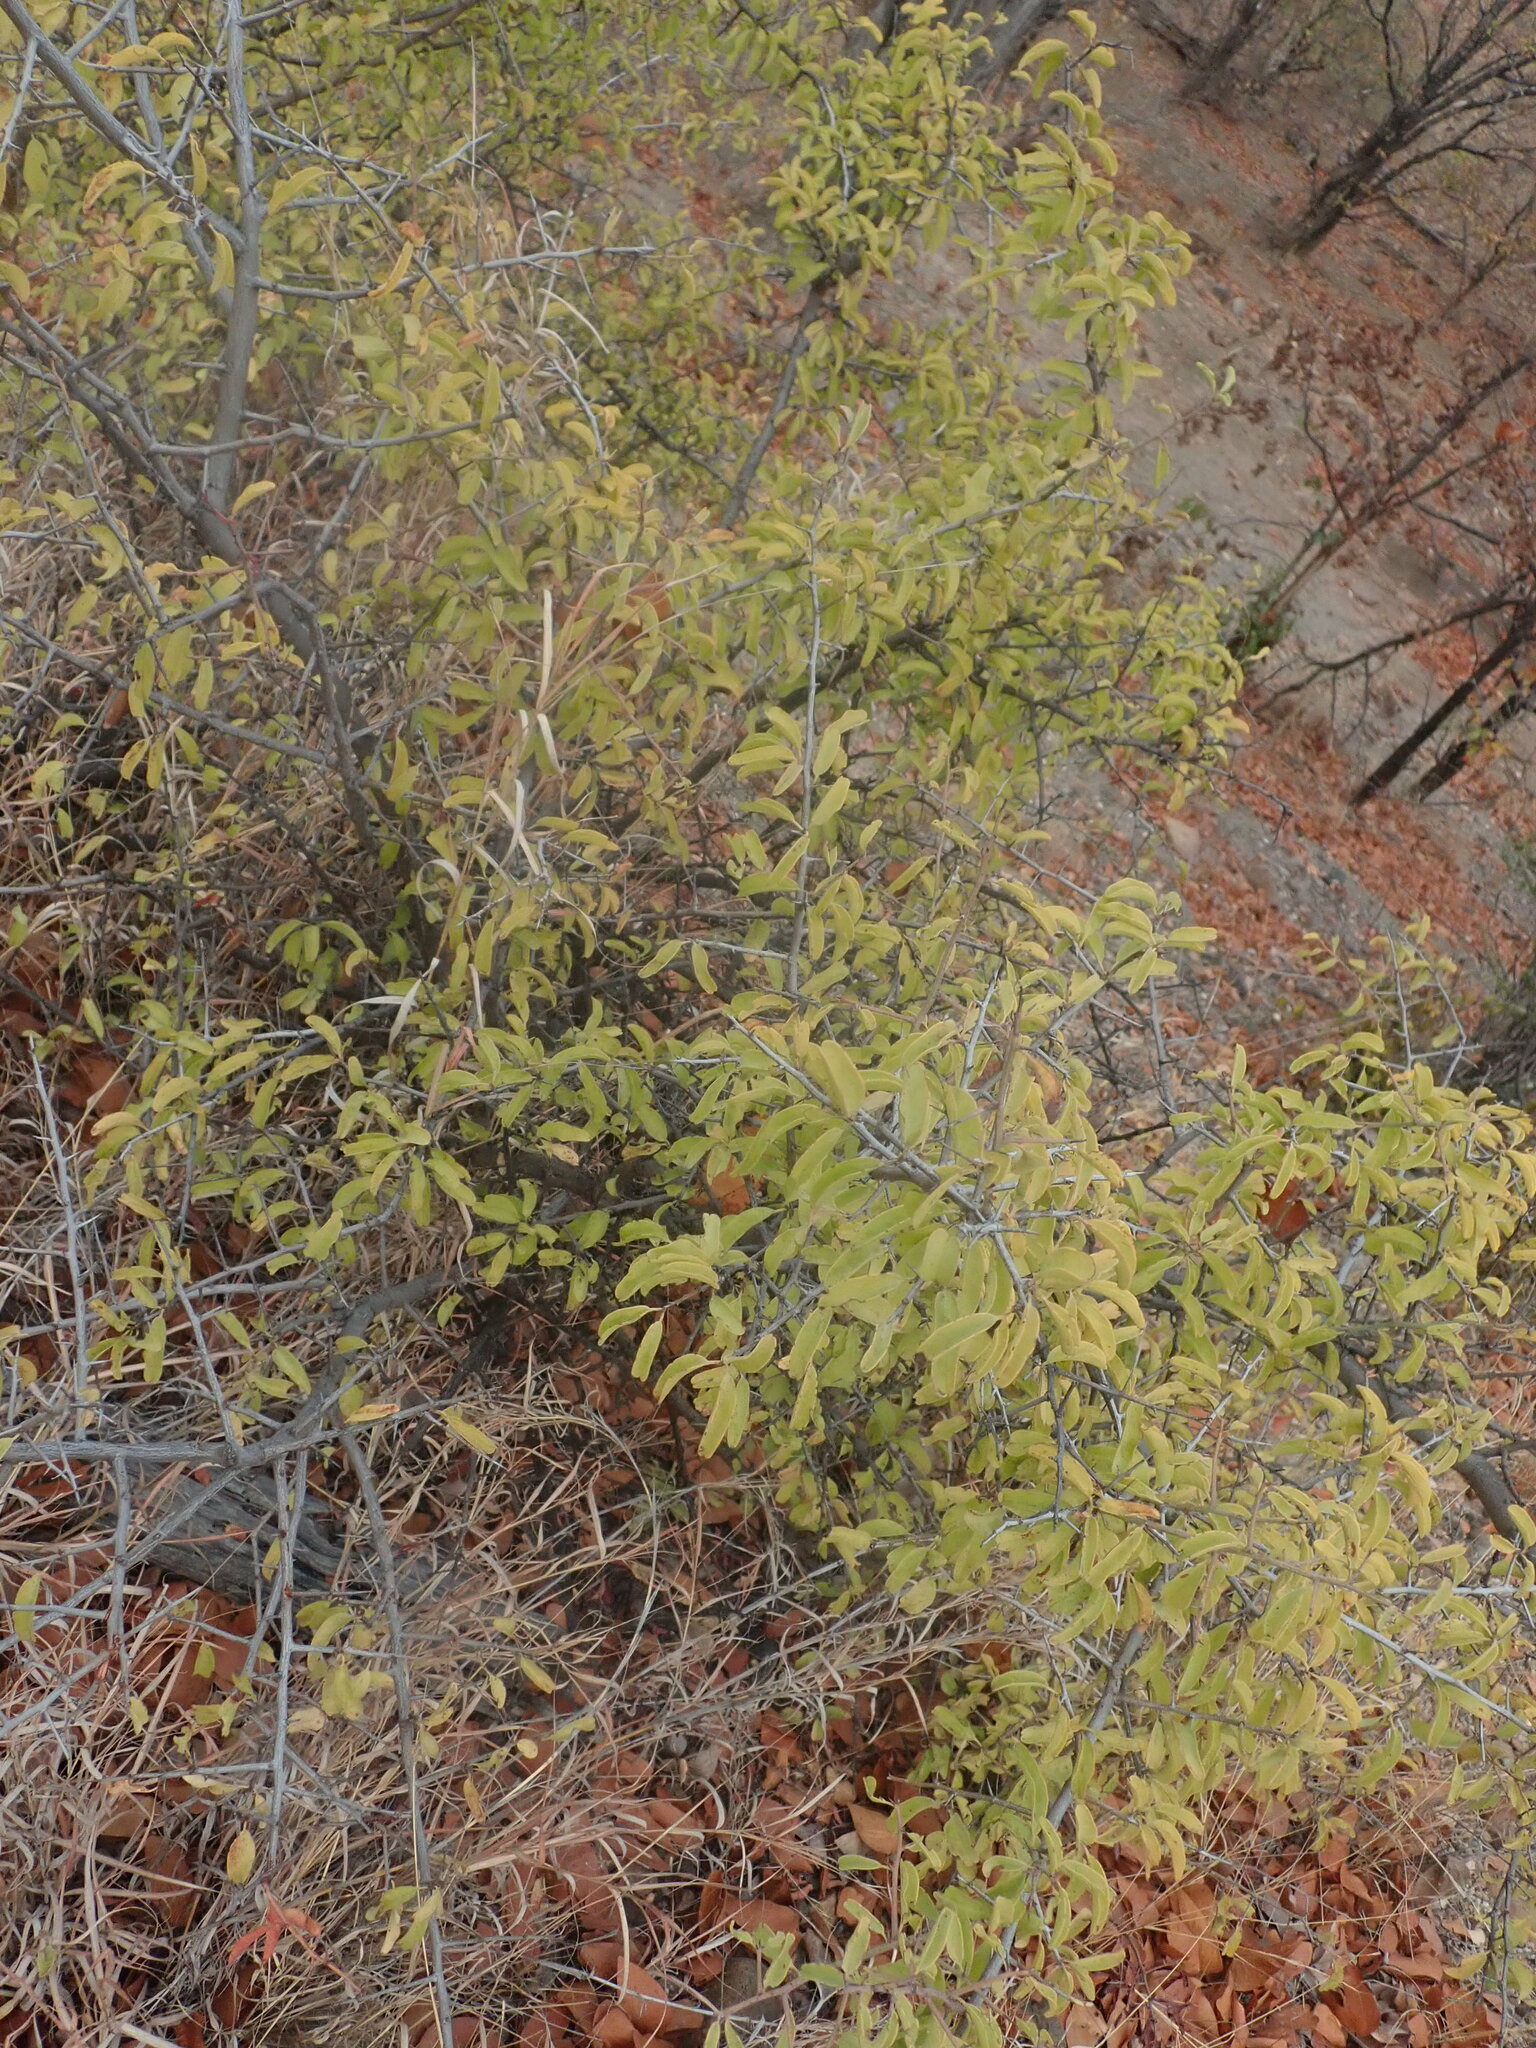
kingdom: Plantae
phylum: Tracheophyta
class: Magnoliopsida
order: Santalales
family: Ximeniaceae
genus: Ximenia
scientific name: Ximenia caffra
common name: Large sourplum
